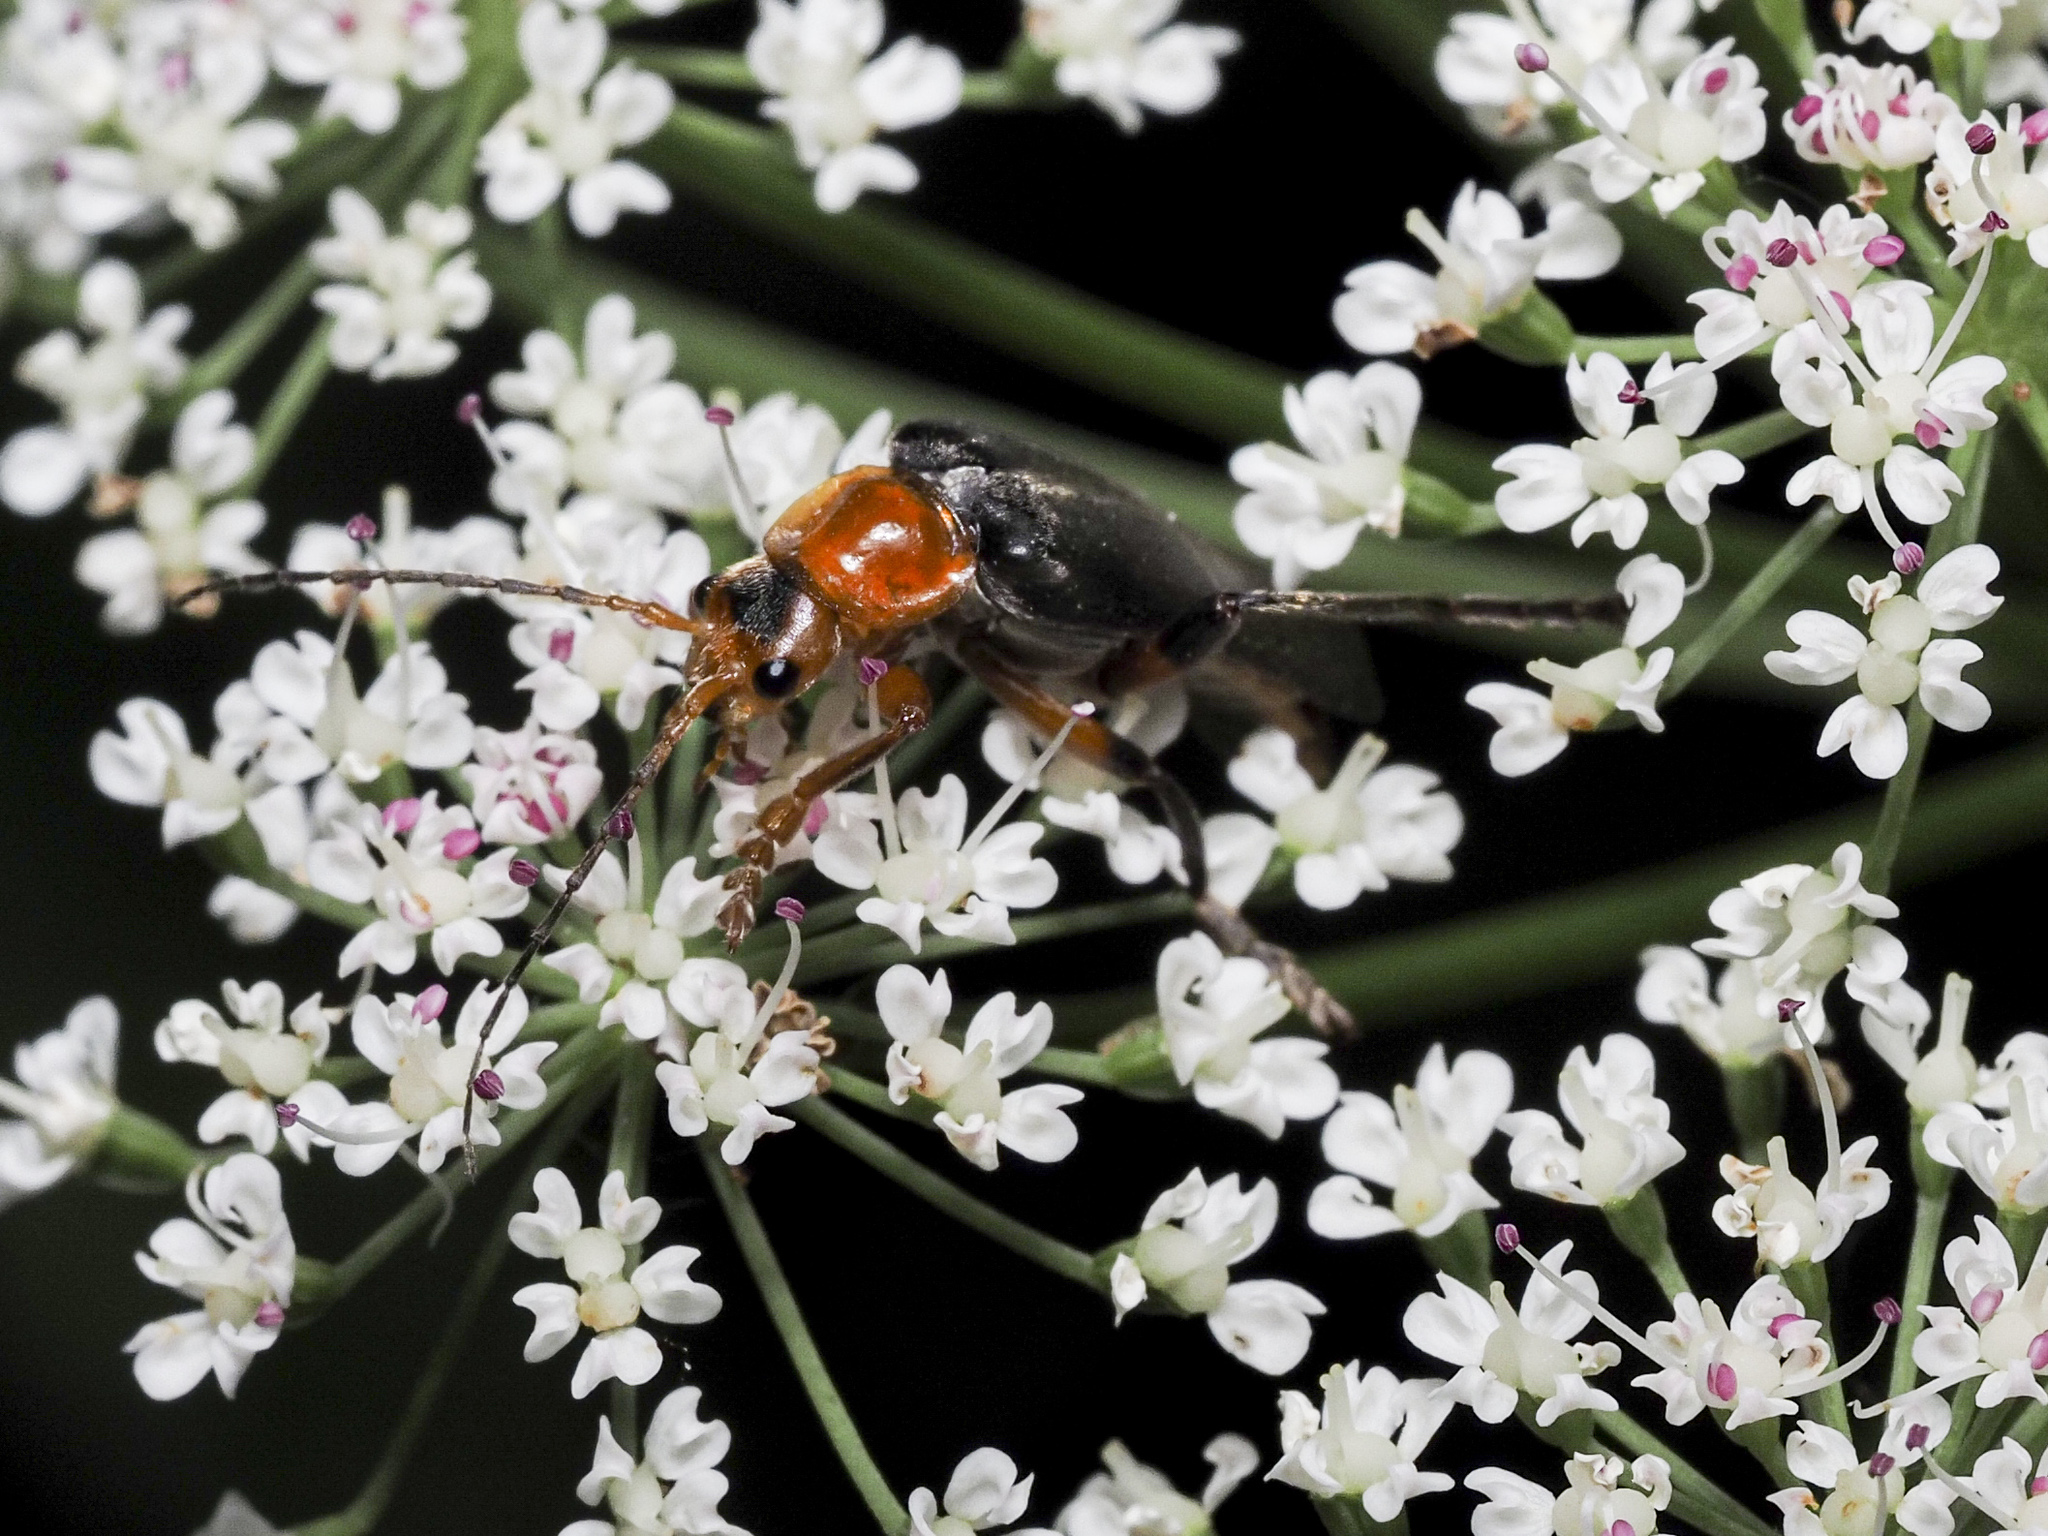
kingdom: Animalia
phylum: Arthropoda
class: Insecta
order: Coleoptera
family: Cantharidae
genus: Cantharis
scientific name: Cantharis livida
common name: Livid soldier beetle
